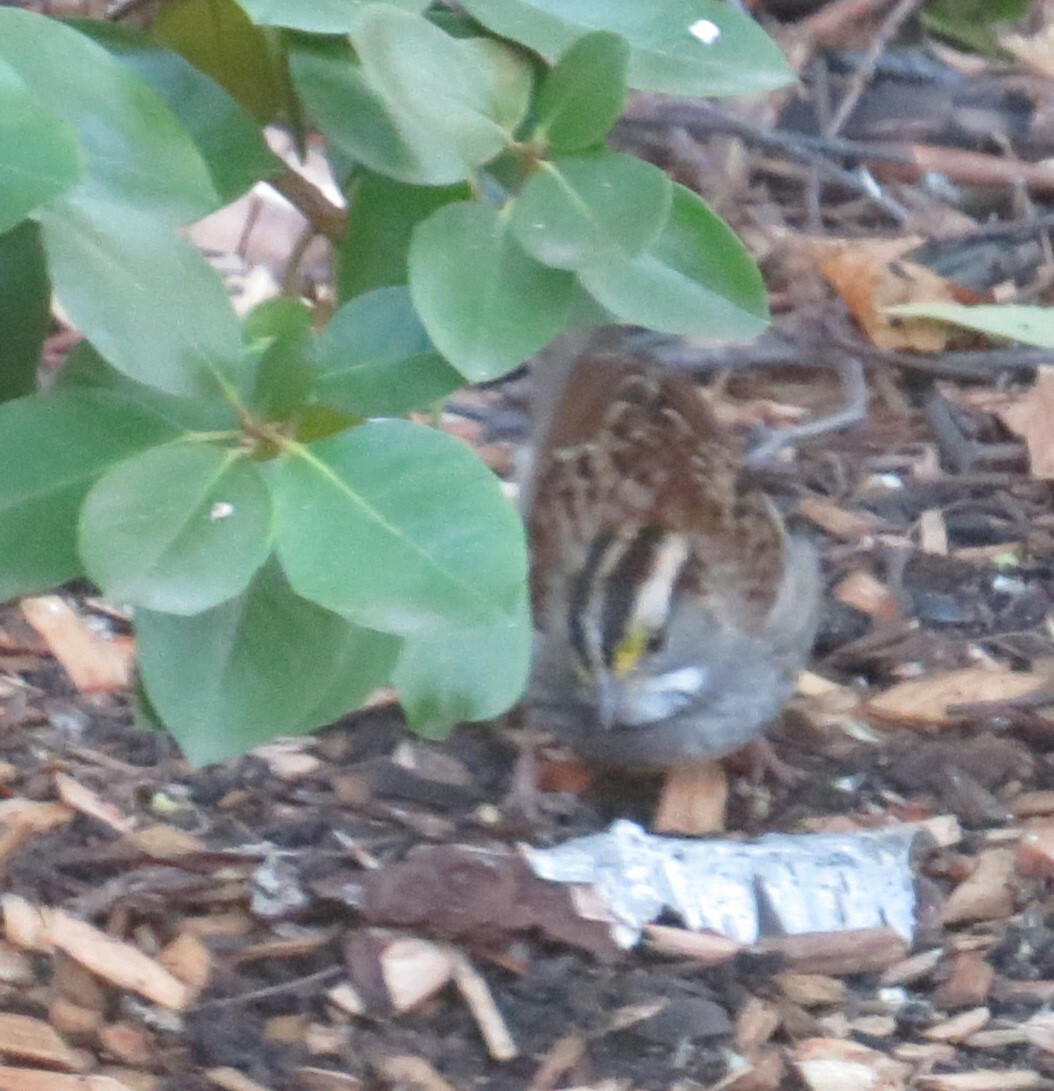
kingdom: Animalia
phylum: Chordata
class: Aves
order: Passeriformes
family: Passerellidae
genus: Zonotrichia
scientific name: Zonotrichia albicollis
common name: White-throated sparrow
